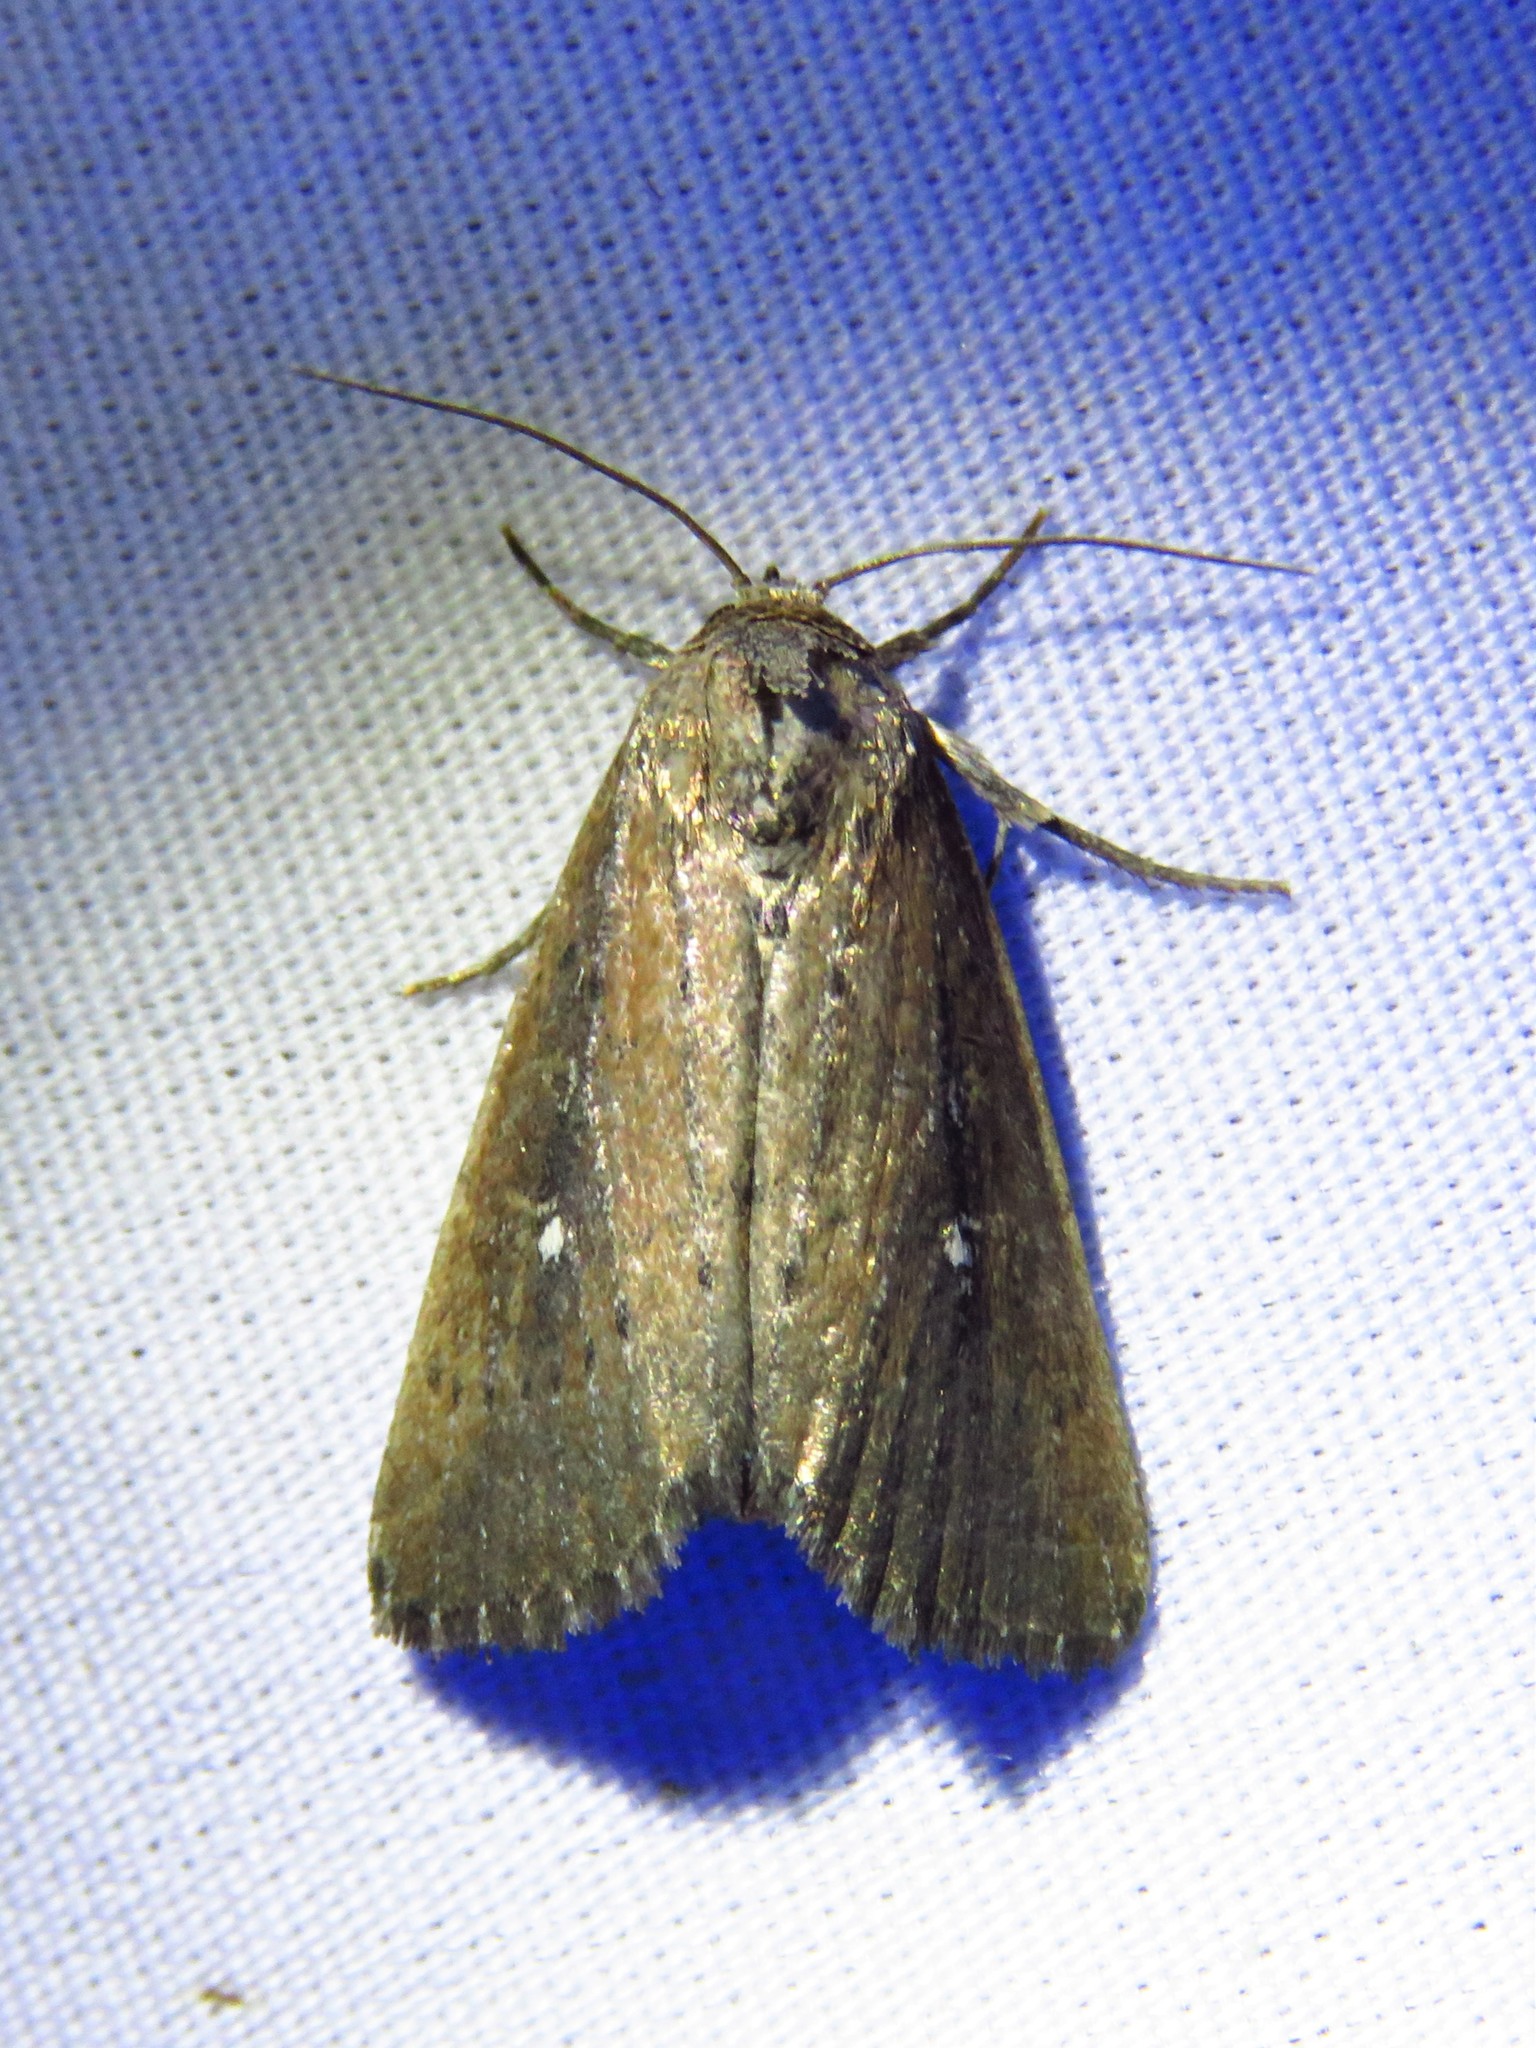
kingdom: Animalia
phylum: Arthropoda
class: Insecta
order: Lepidoptera
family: Noctuidae
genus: Condica
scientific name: Condica videns
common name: White-dotted groundling
